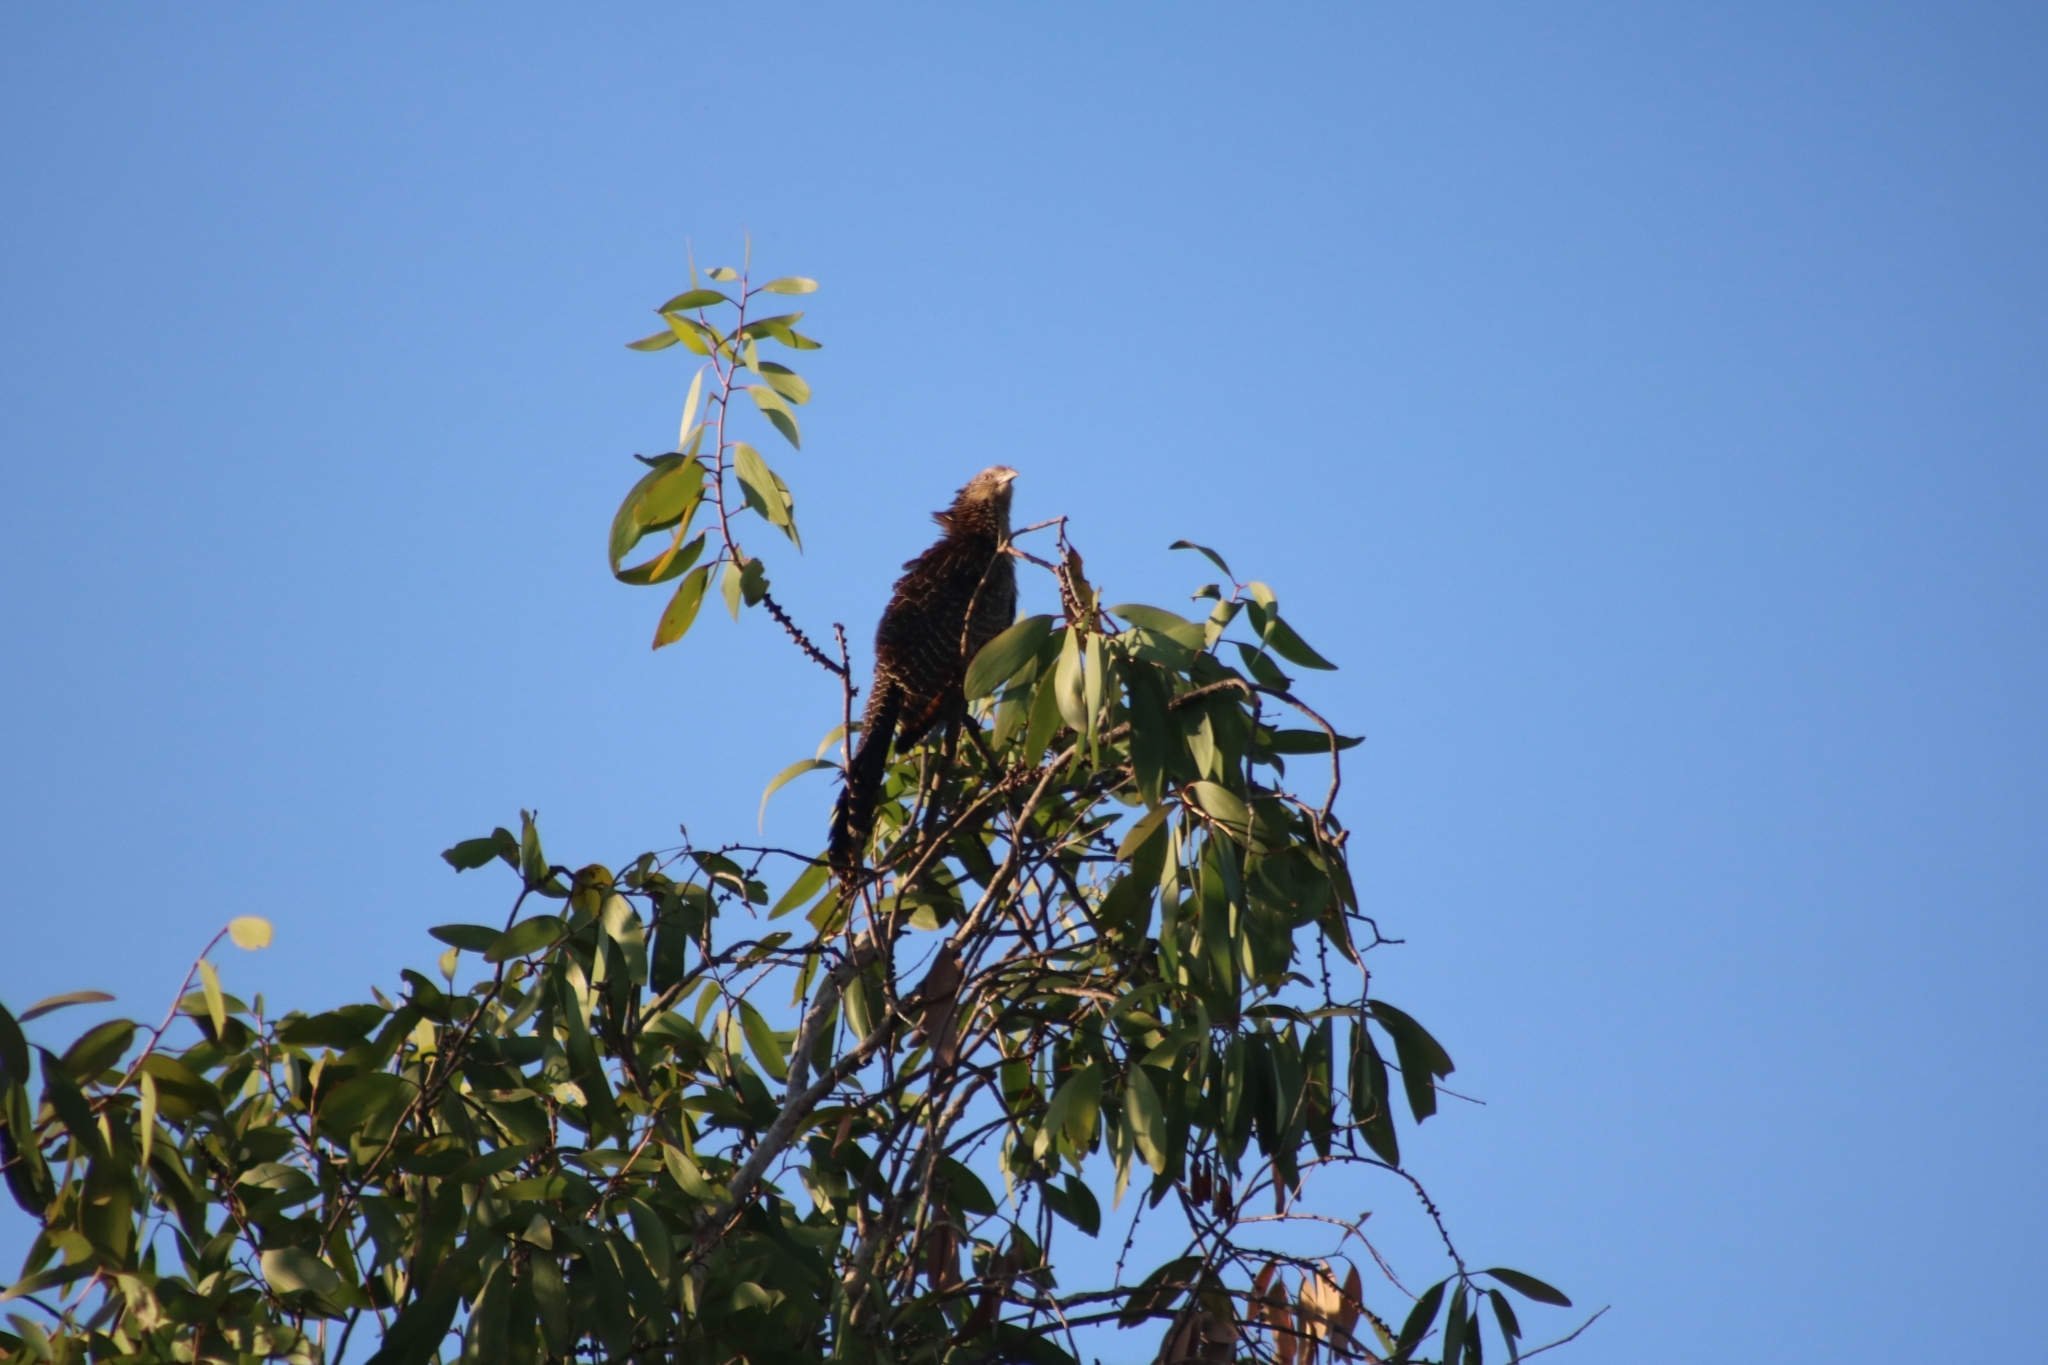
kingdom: Animalia
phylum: Chordata
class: Aves
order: Cuculiformes
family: Cuculidae
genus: Centropus
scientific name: Centropus phasianinus
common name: Pheasant coucal
